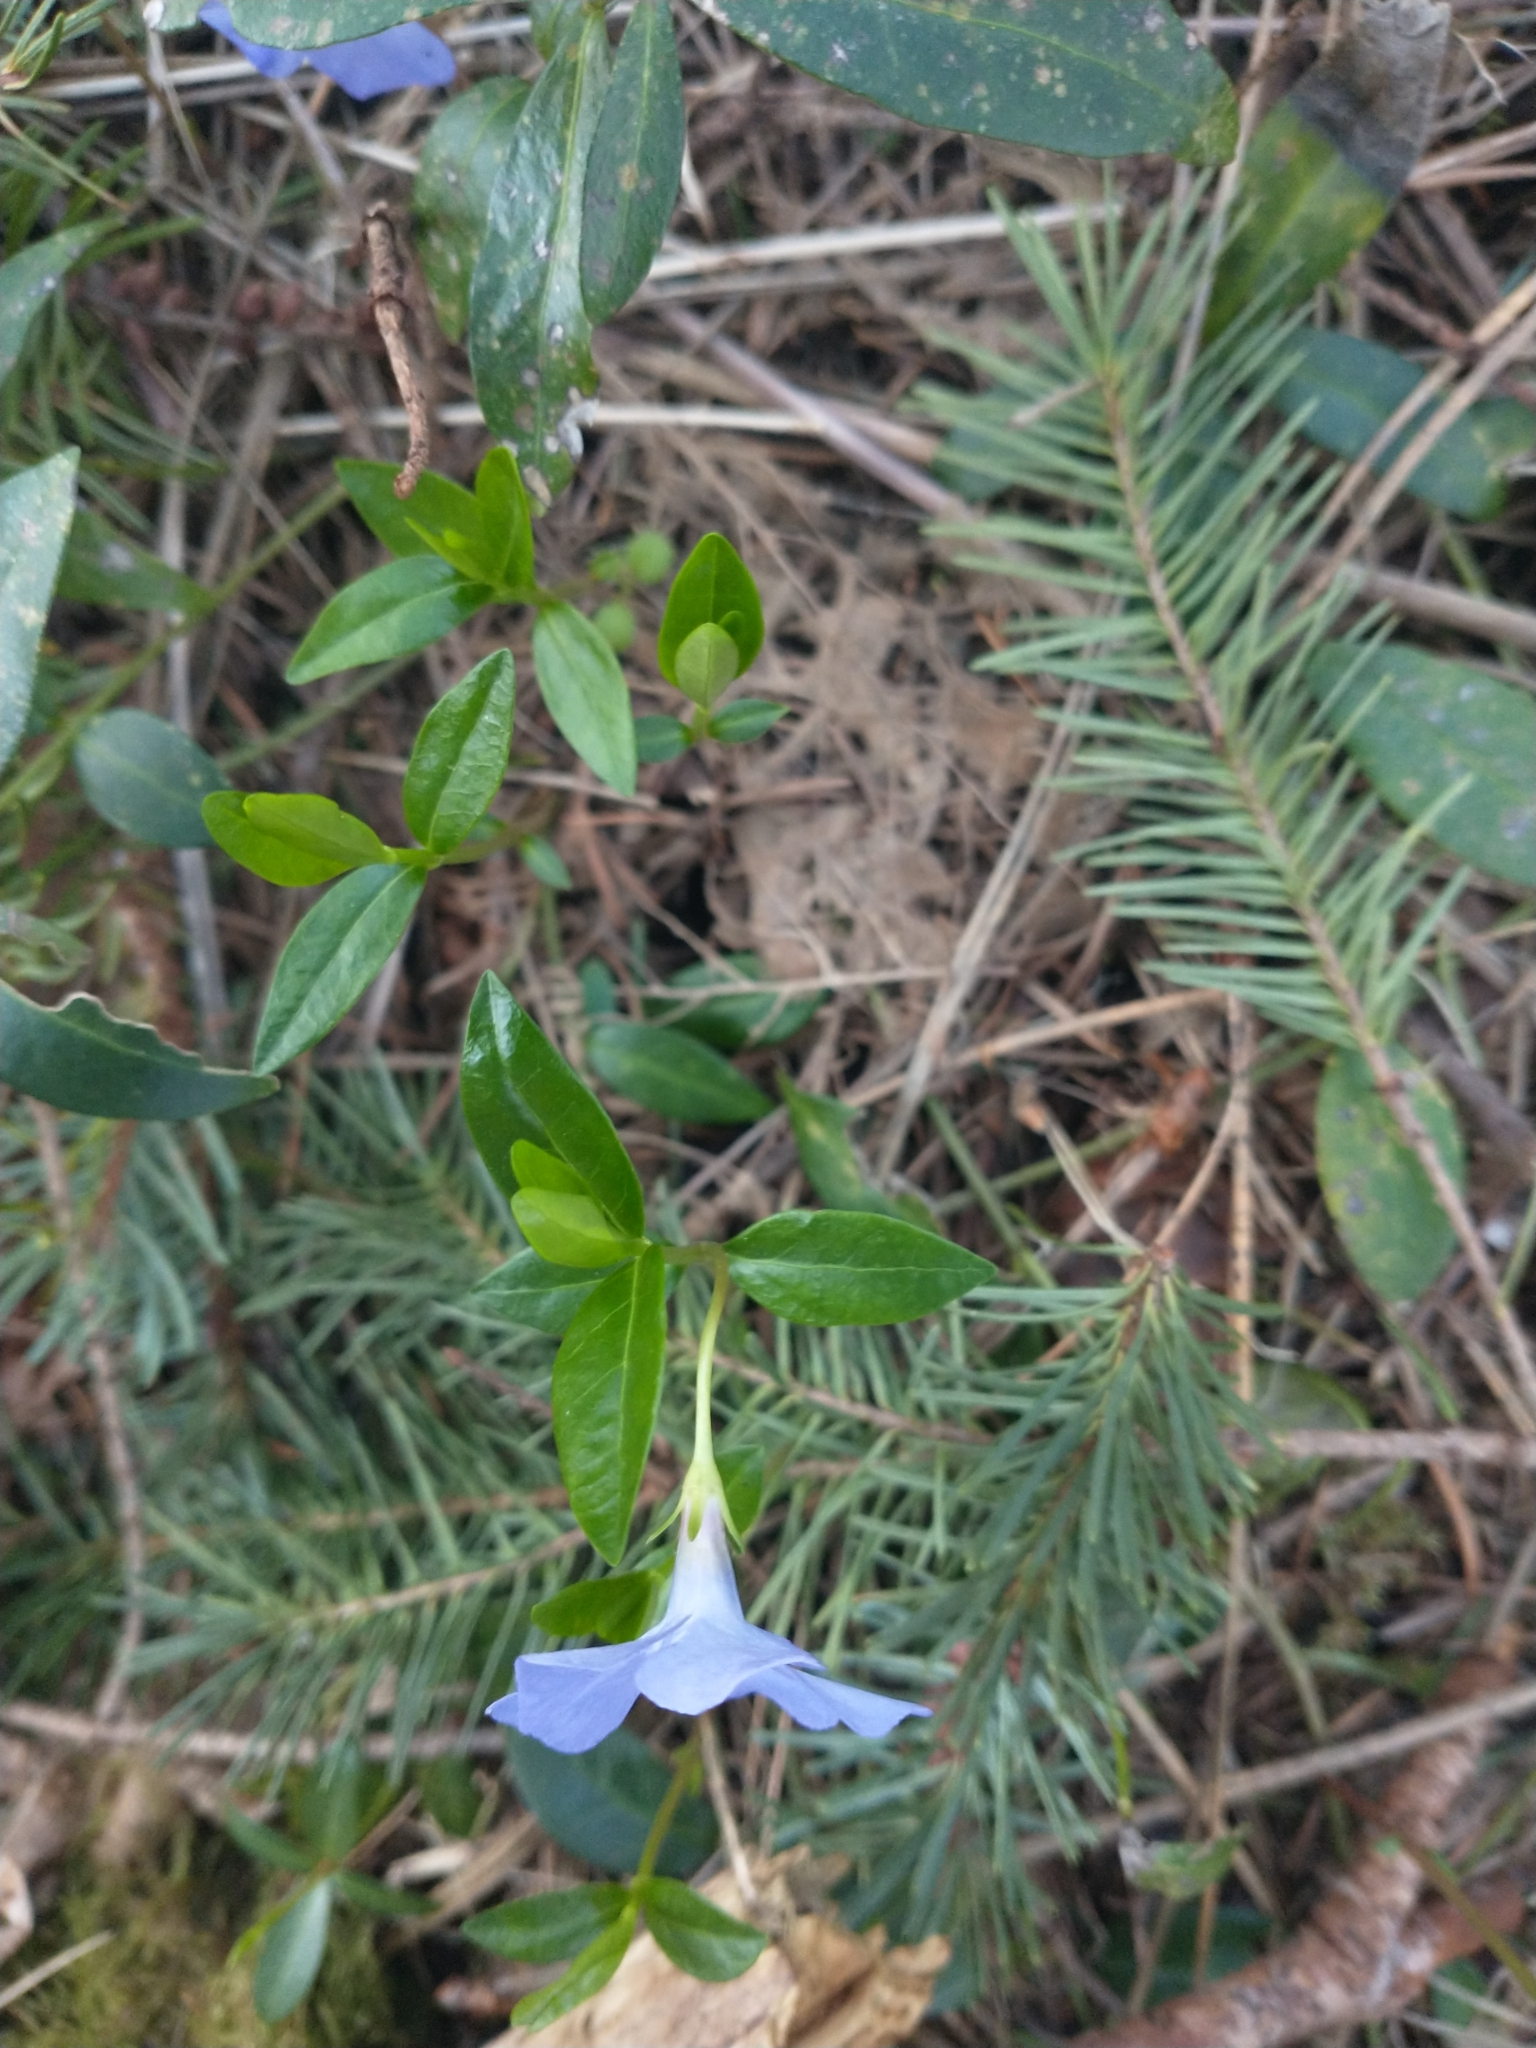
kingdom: Plantae
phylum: Tracheophyta
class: Magnoliopsida
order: Gentianales
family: Apocynaceae
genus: Vinca
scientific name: Vinca minor
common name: Lesser periwinkle
